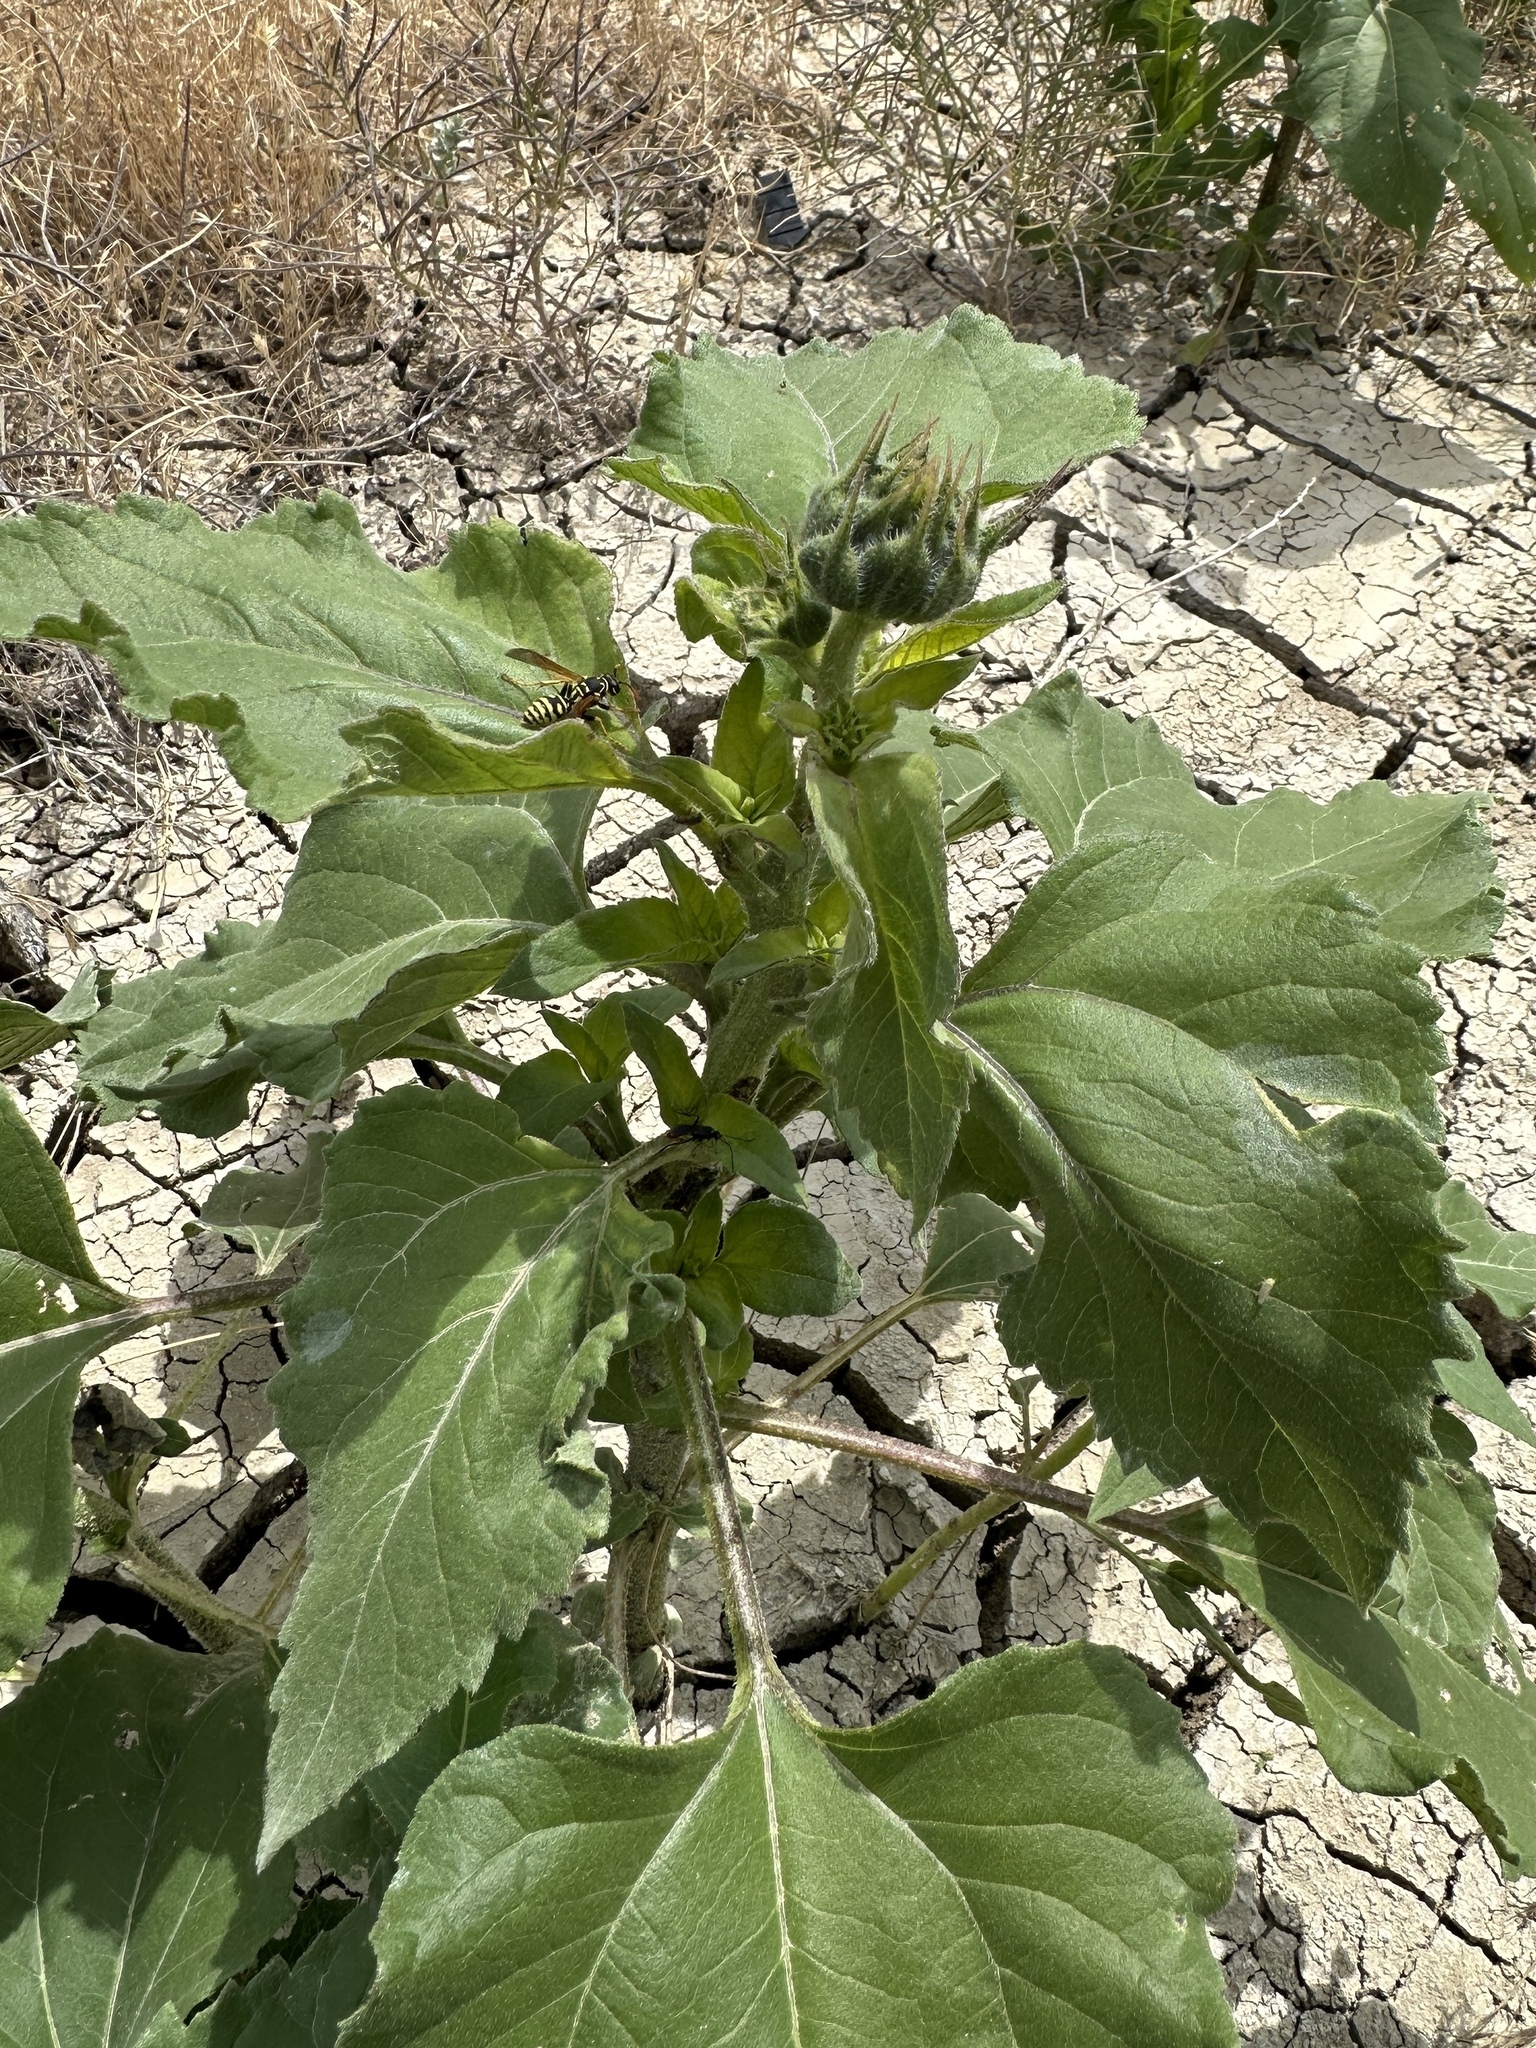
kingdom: Plantae
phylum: Tracheophyta
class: Magnoliopsida
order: Asterales
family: Asteraceae
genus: Helianthus
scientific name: Helianthus annuus
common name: Sunflower
